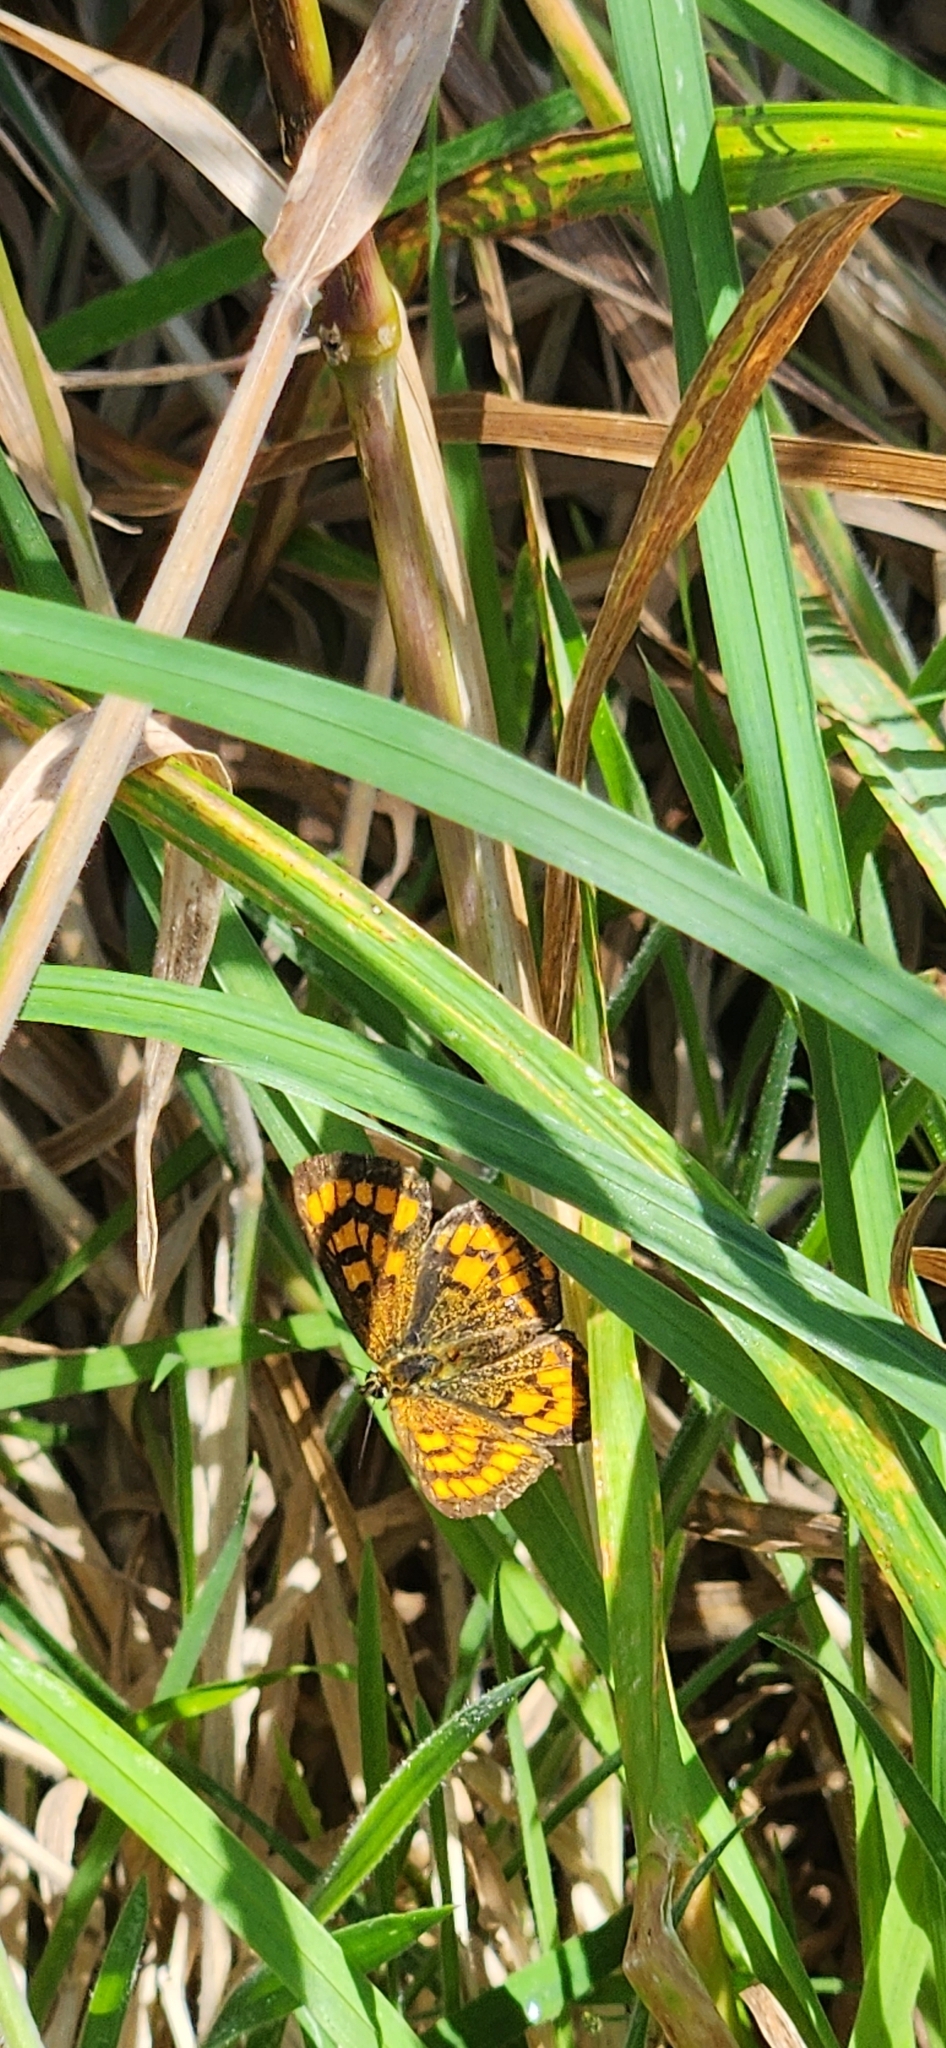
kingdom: Animalia
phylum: Arthropoda
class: Insecta
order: Lepidoptera
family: Lycaenidae
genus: Lycaena
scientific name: Lycaena salustius
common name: North island coastal copper
